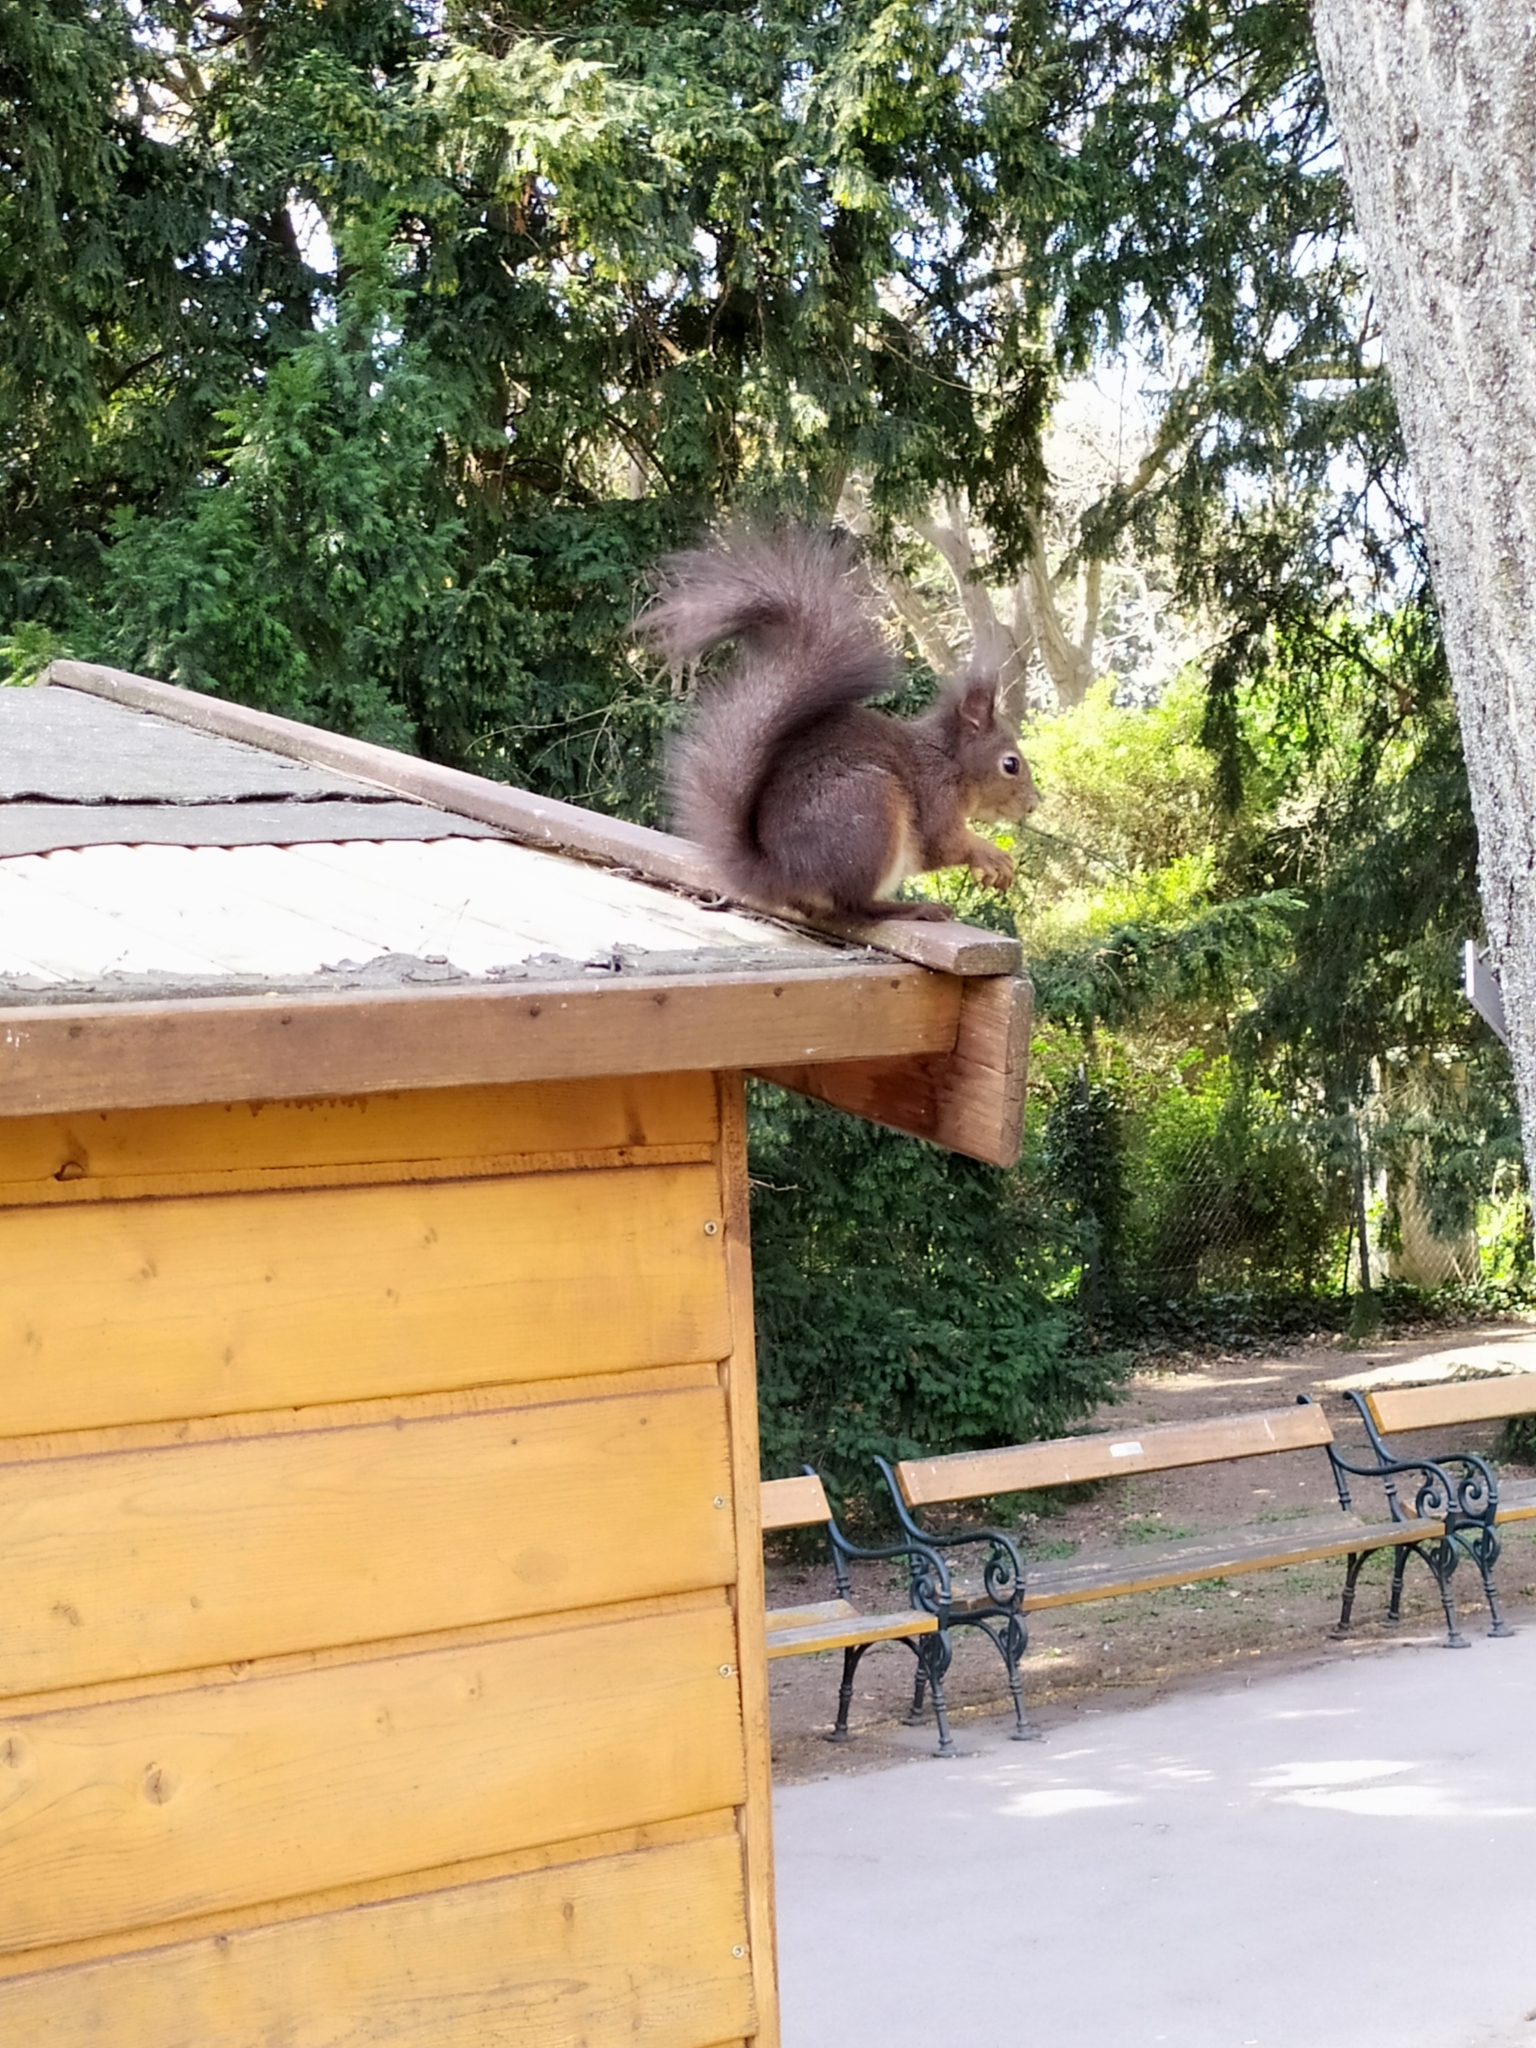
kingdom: Animalia
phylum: Chordata
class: Mammalia
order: Rodentia
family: Sciuridae
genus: Sciurus
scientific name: Sciurus vulgaris
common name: Eurasian red squirrel
